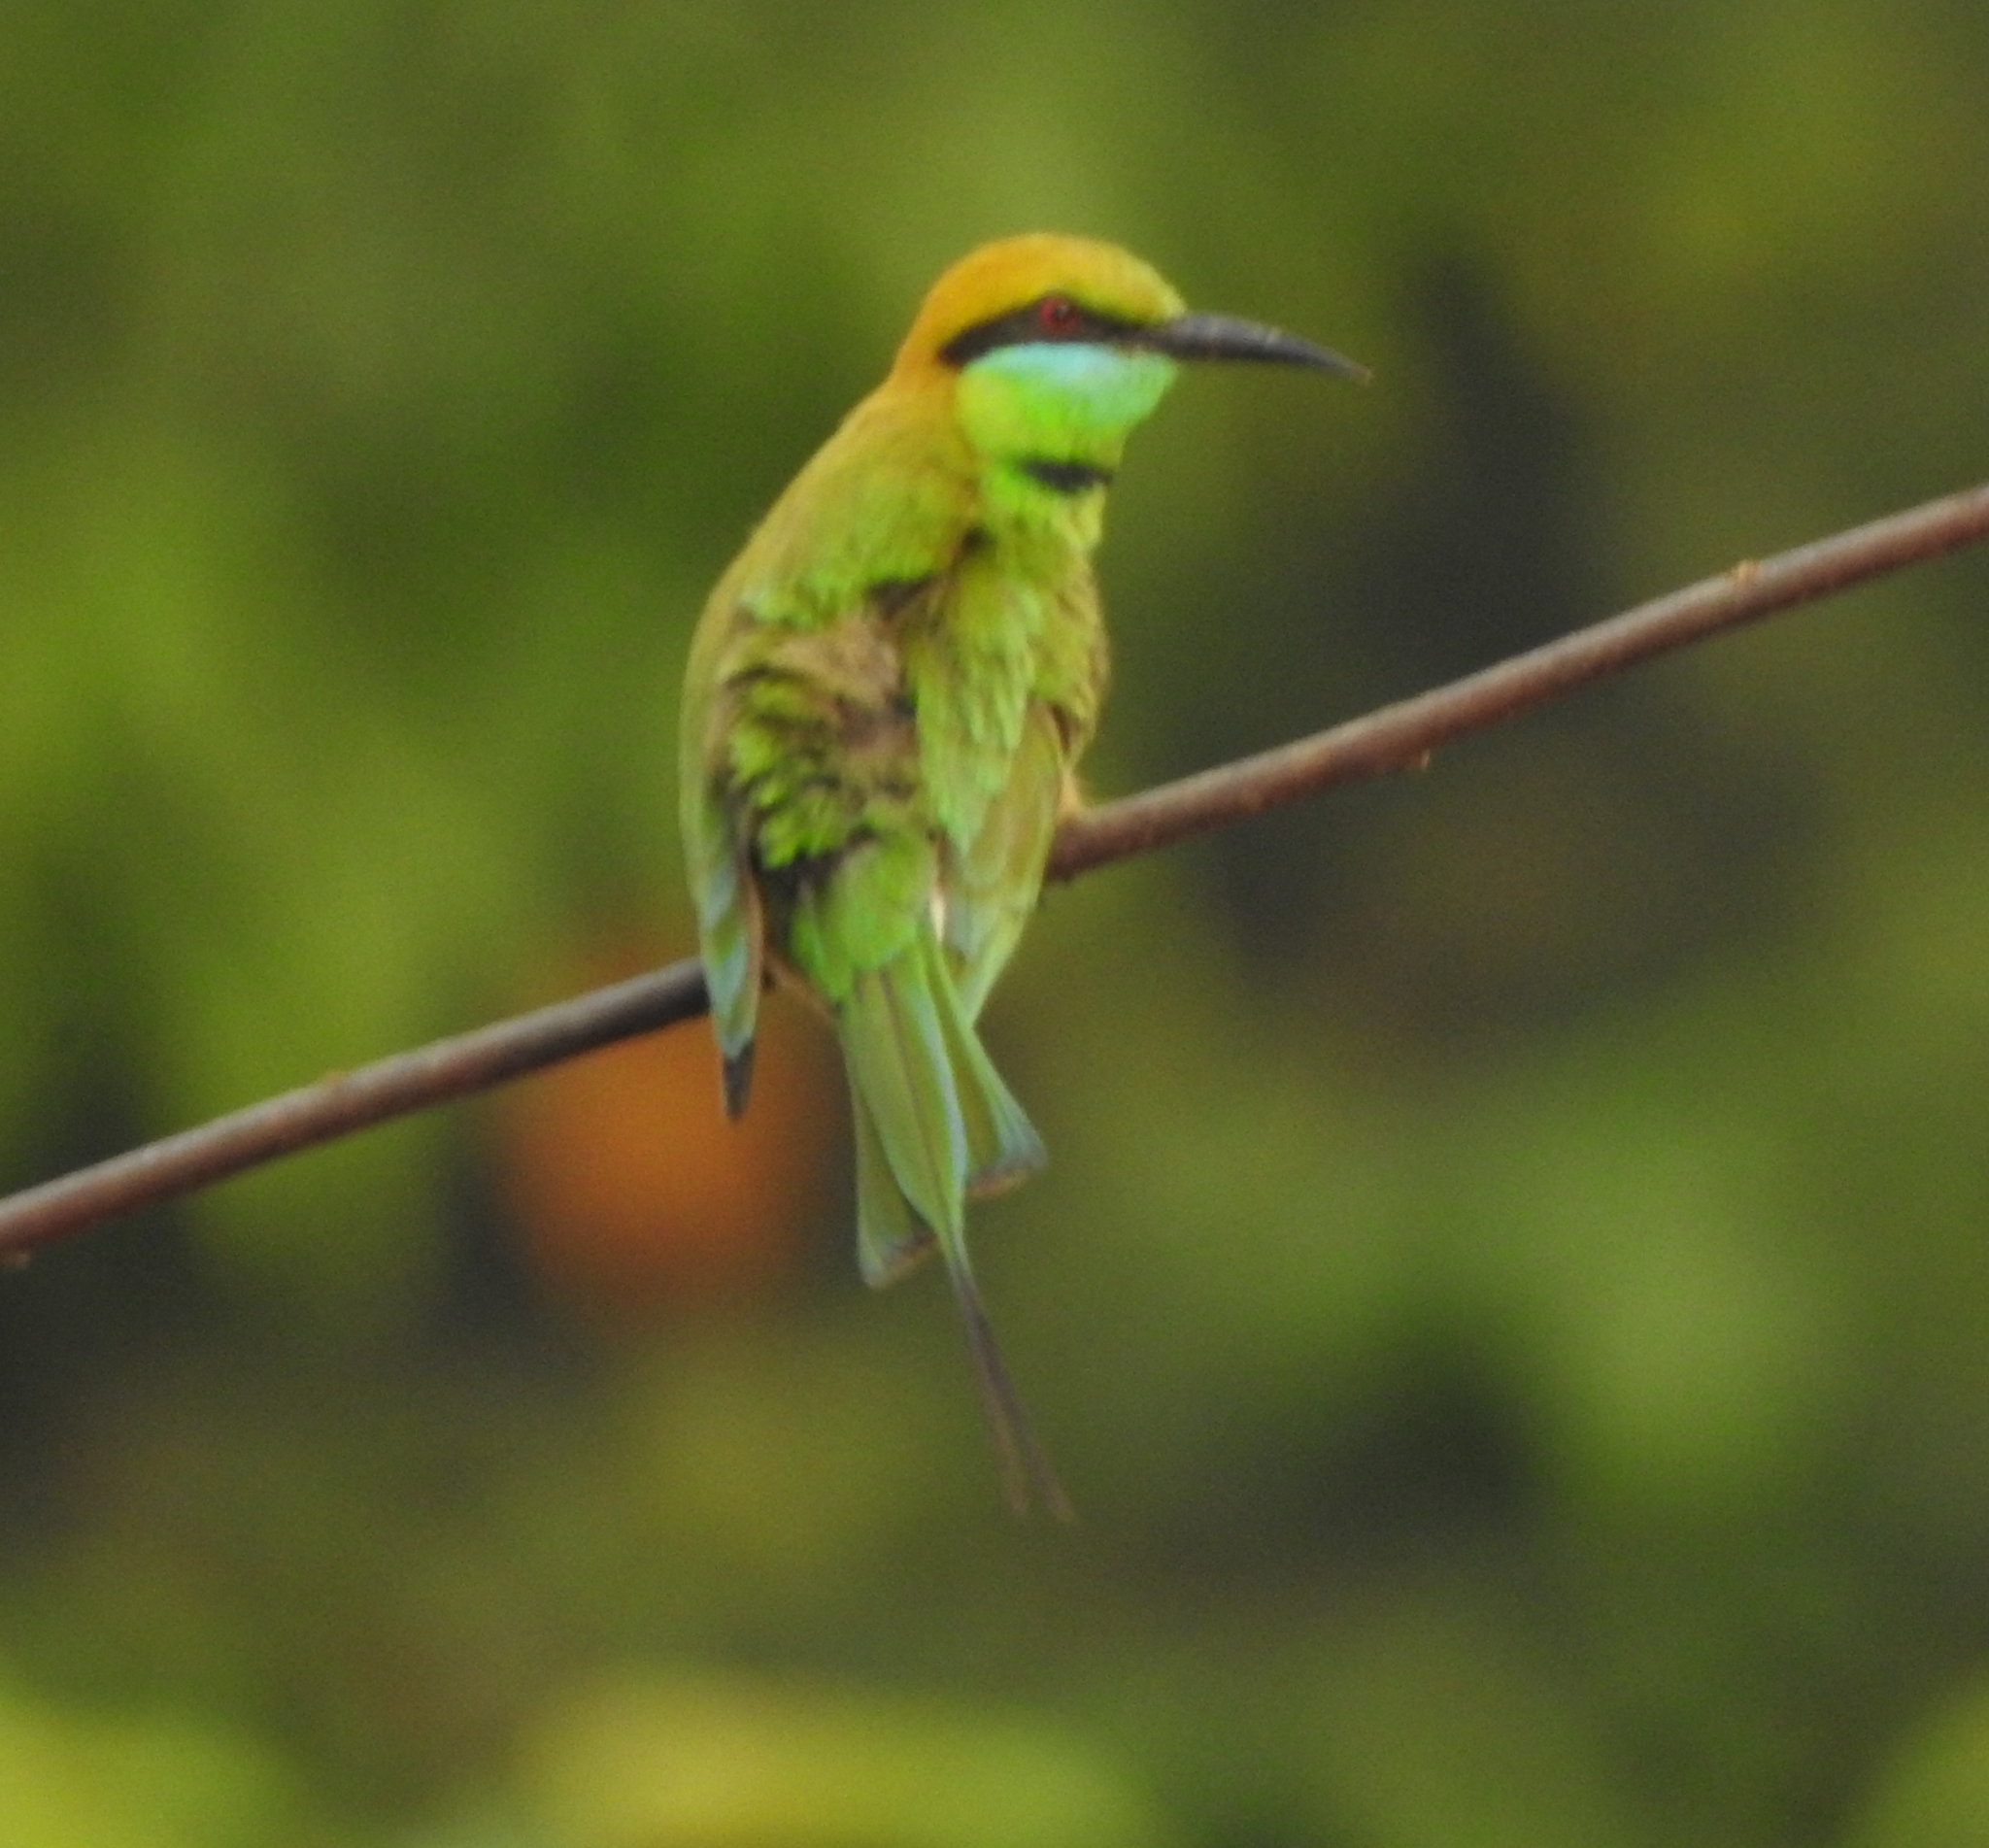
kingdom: Animalia
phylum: Chordata
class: Aves
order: Coraciiformes
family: Meropidae
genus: Merops
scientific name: Merops orientalis
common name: Green bee-eater
